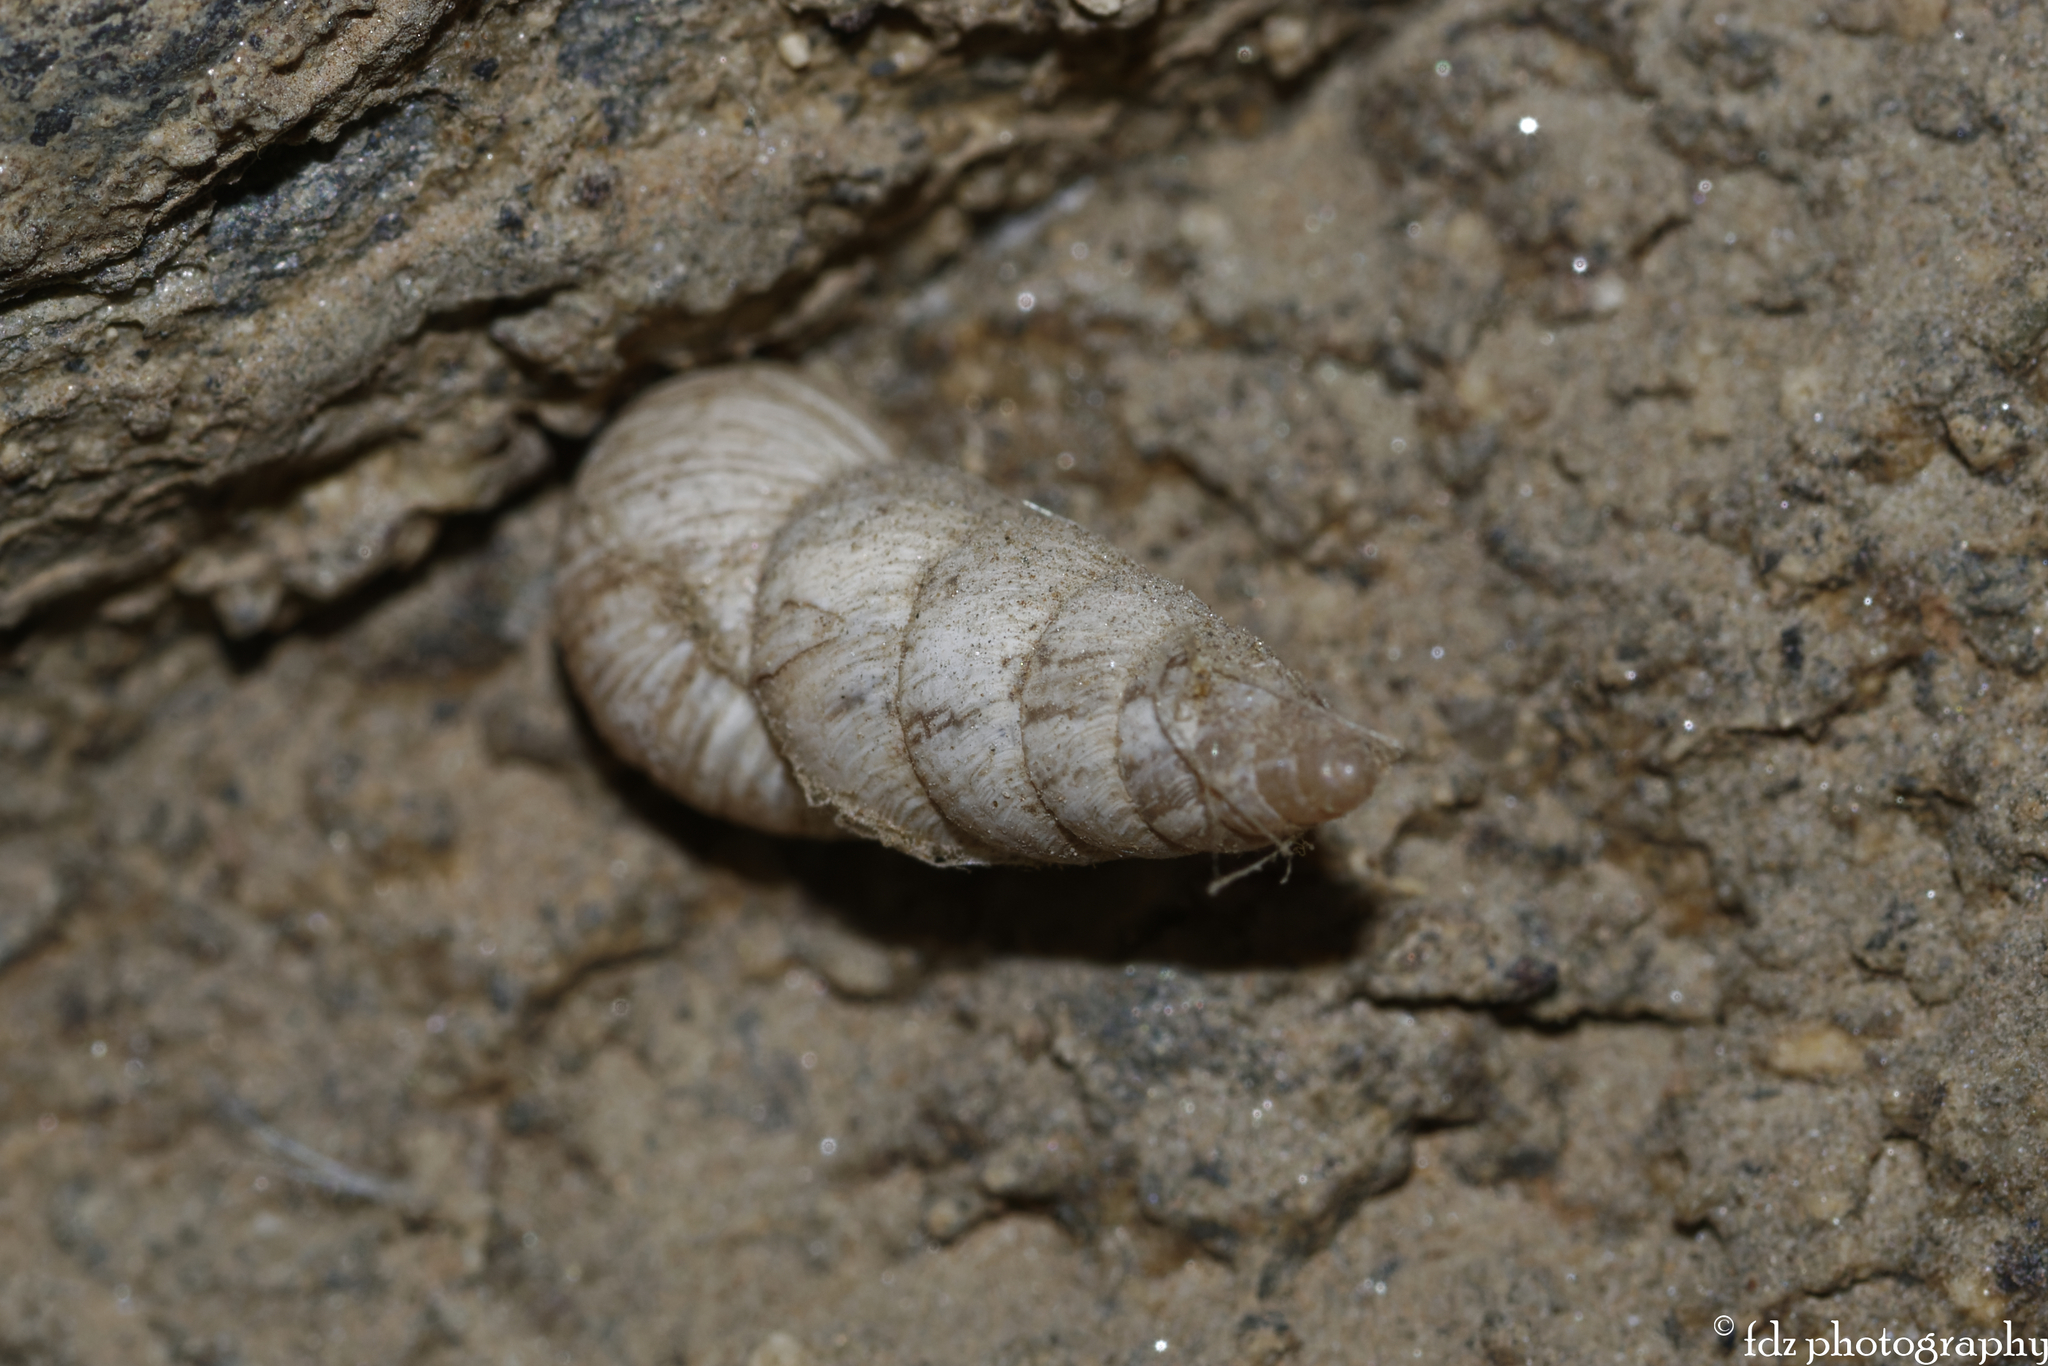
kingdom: Animalia
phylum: Mollusca
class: Gastropoda
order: Stylommatophora
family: Geomitridae
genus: Cochlicella
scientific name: Cochlicella acuta
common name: Pointed snail
